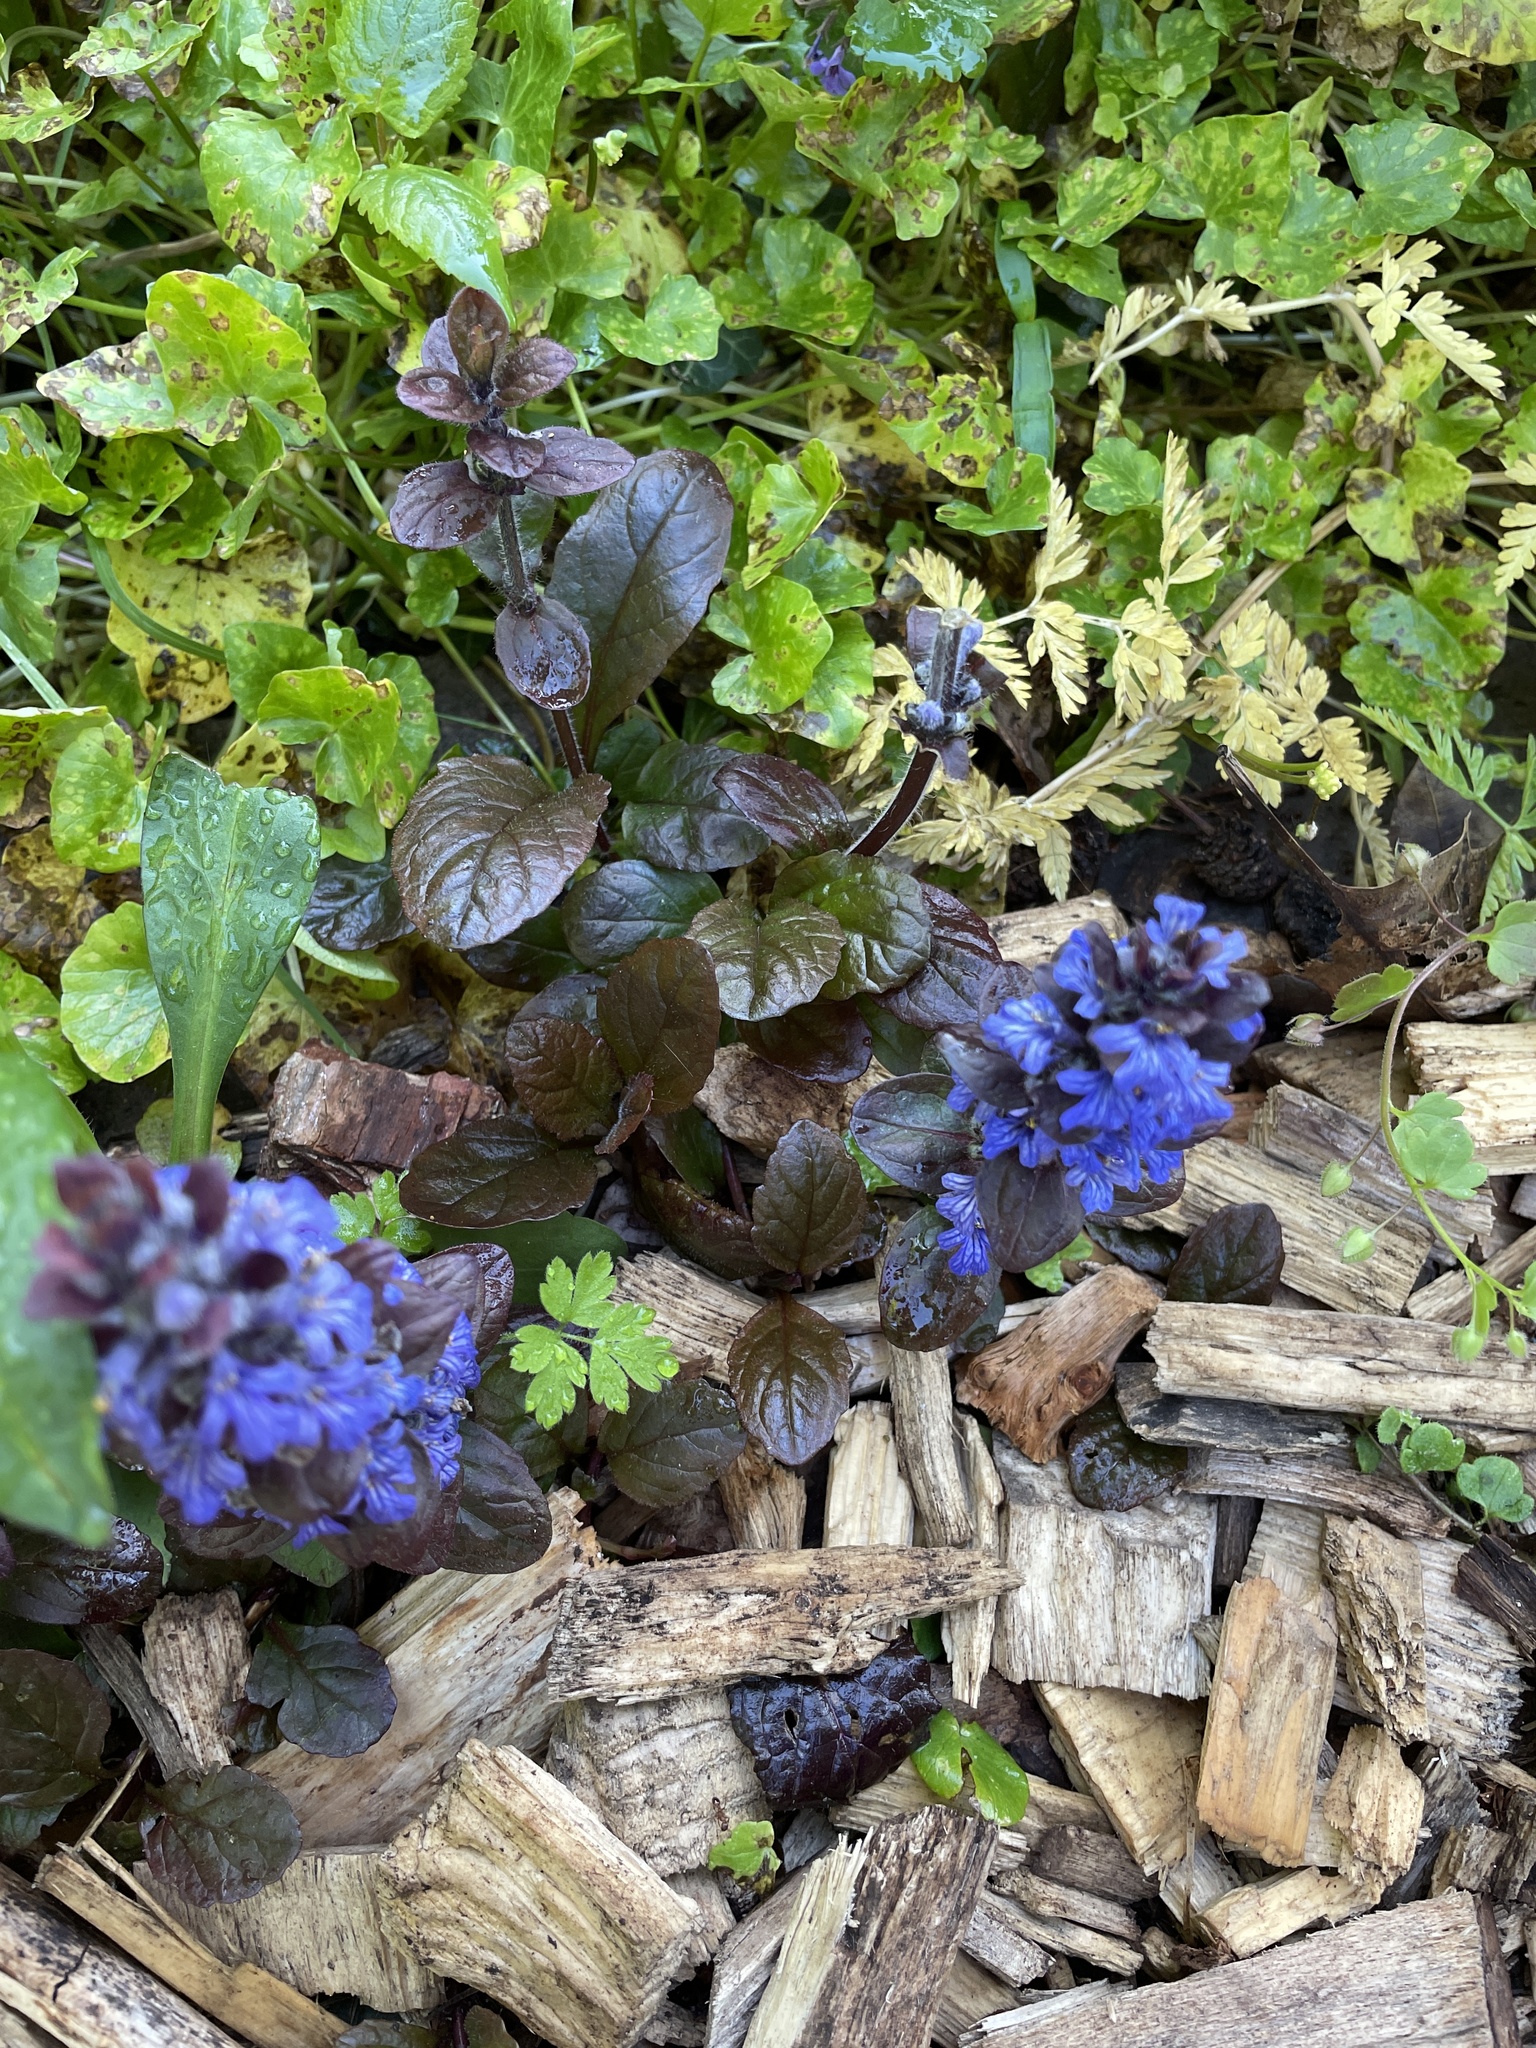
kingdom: Plantae
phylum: Tracheophyta
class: Magnoliopsida
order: Lamiales
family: Lamiaceae
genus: Ajuga
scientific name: Ajuga reptans
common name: Bugle
